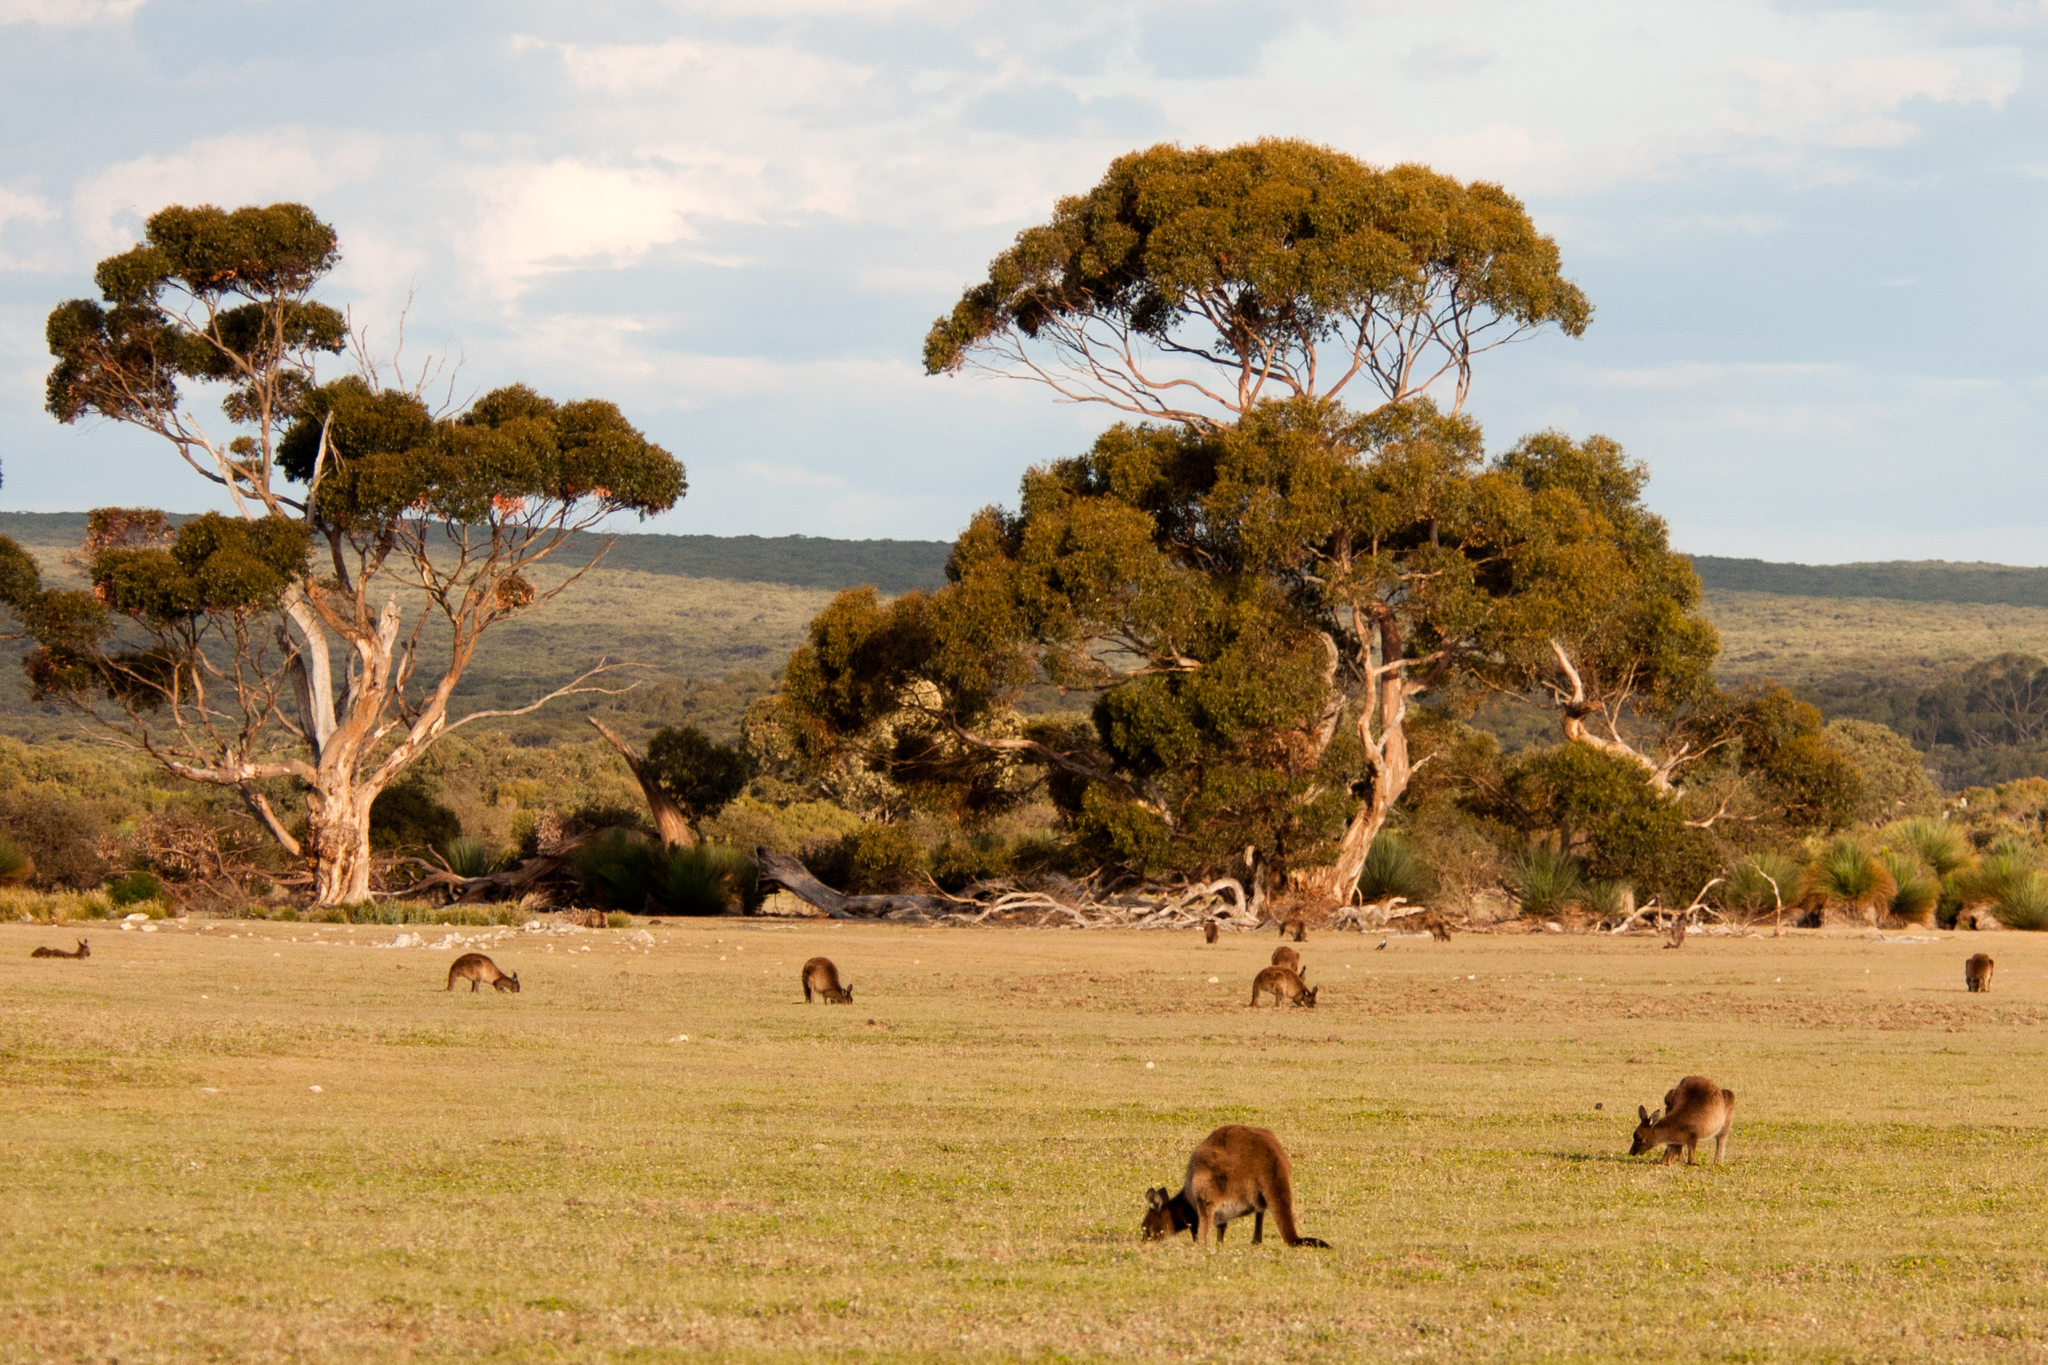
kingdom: Animalia
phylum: Chordata
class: Mammalia
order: Diprotodontia
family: Macropodidae
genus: Macropus
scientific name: Macropus fuliginosus
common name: Western grey kangaroo
